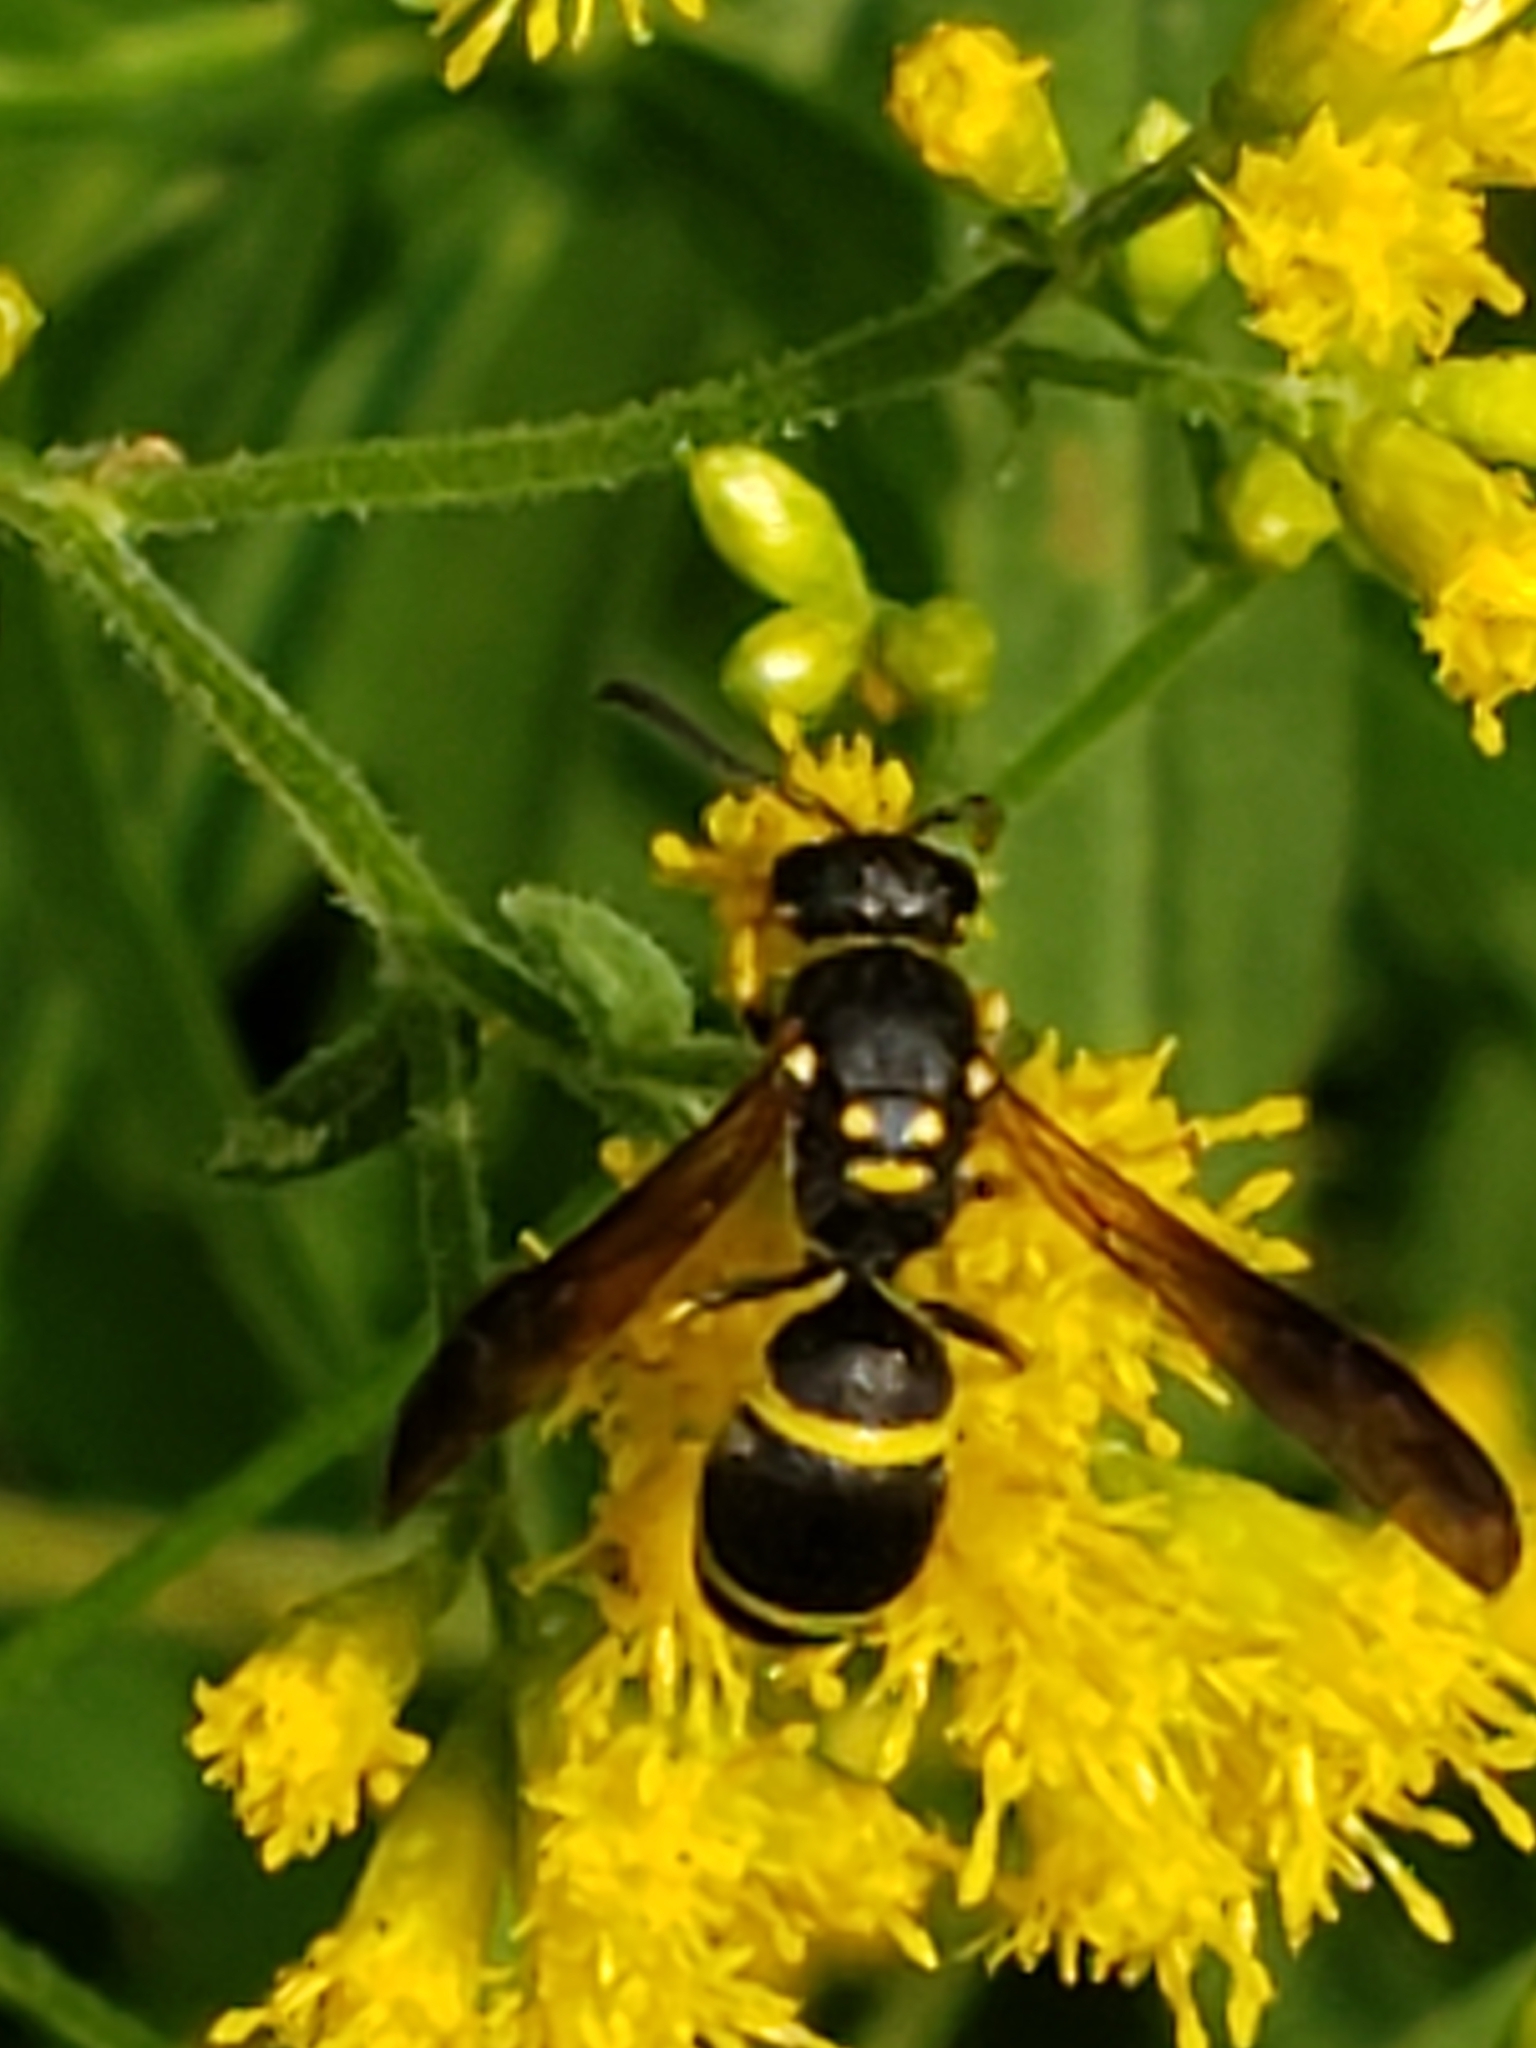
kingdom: Animalia
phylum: Arthropoda
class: Insecta
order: Hymenoptera
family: Vespidae
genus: Ancistrocerus
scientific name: Ancistrocerus adiabatus
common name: Bramble mason wasp
